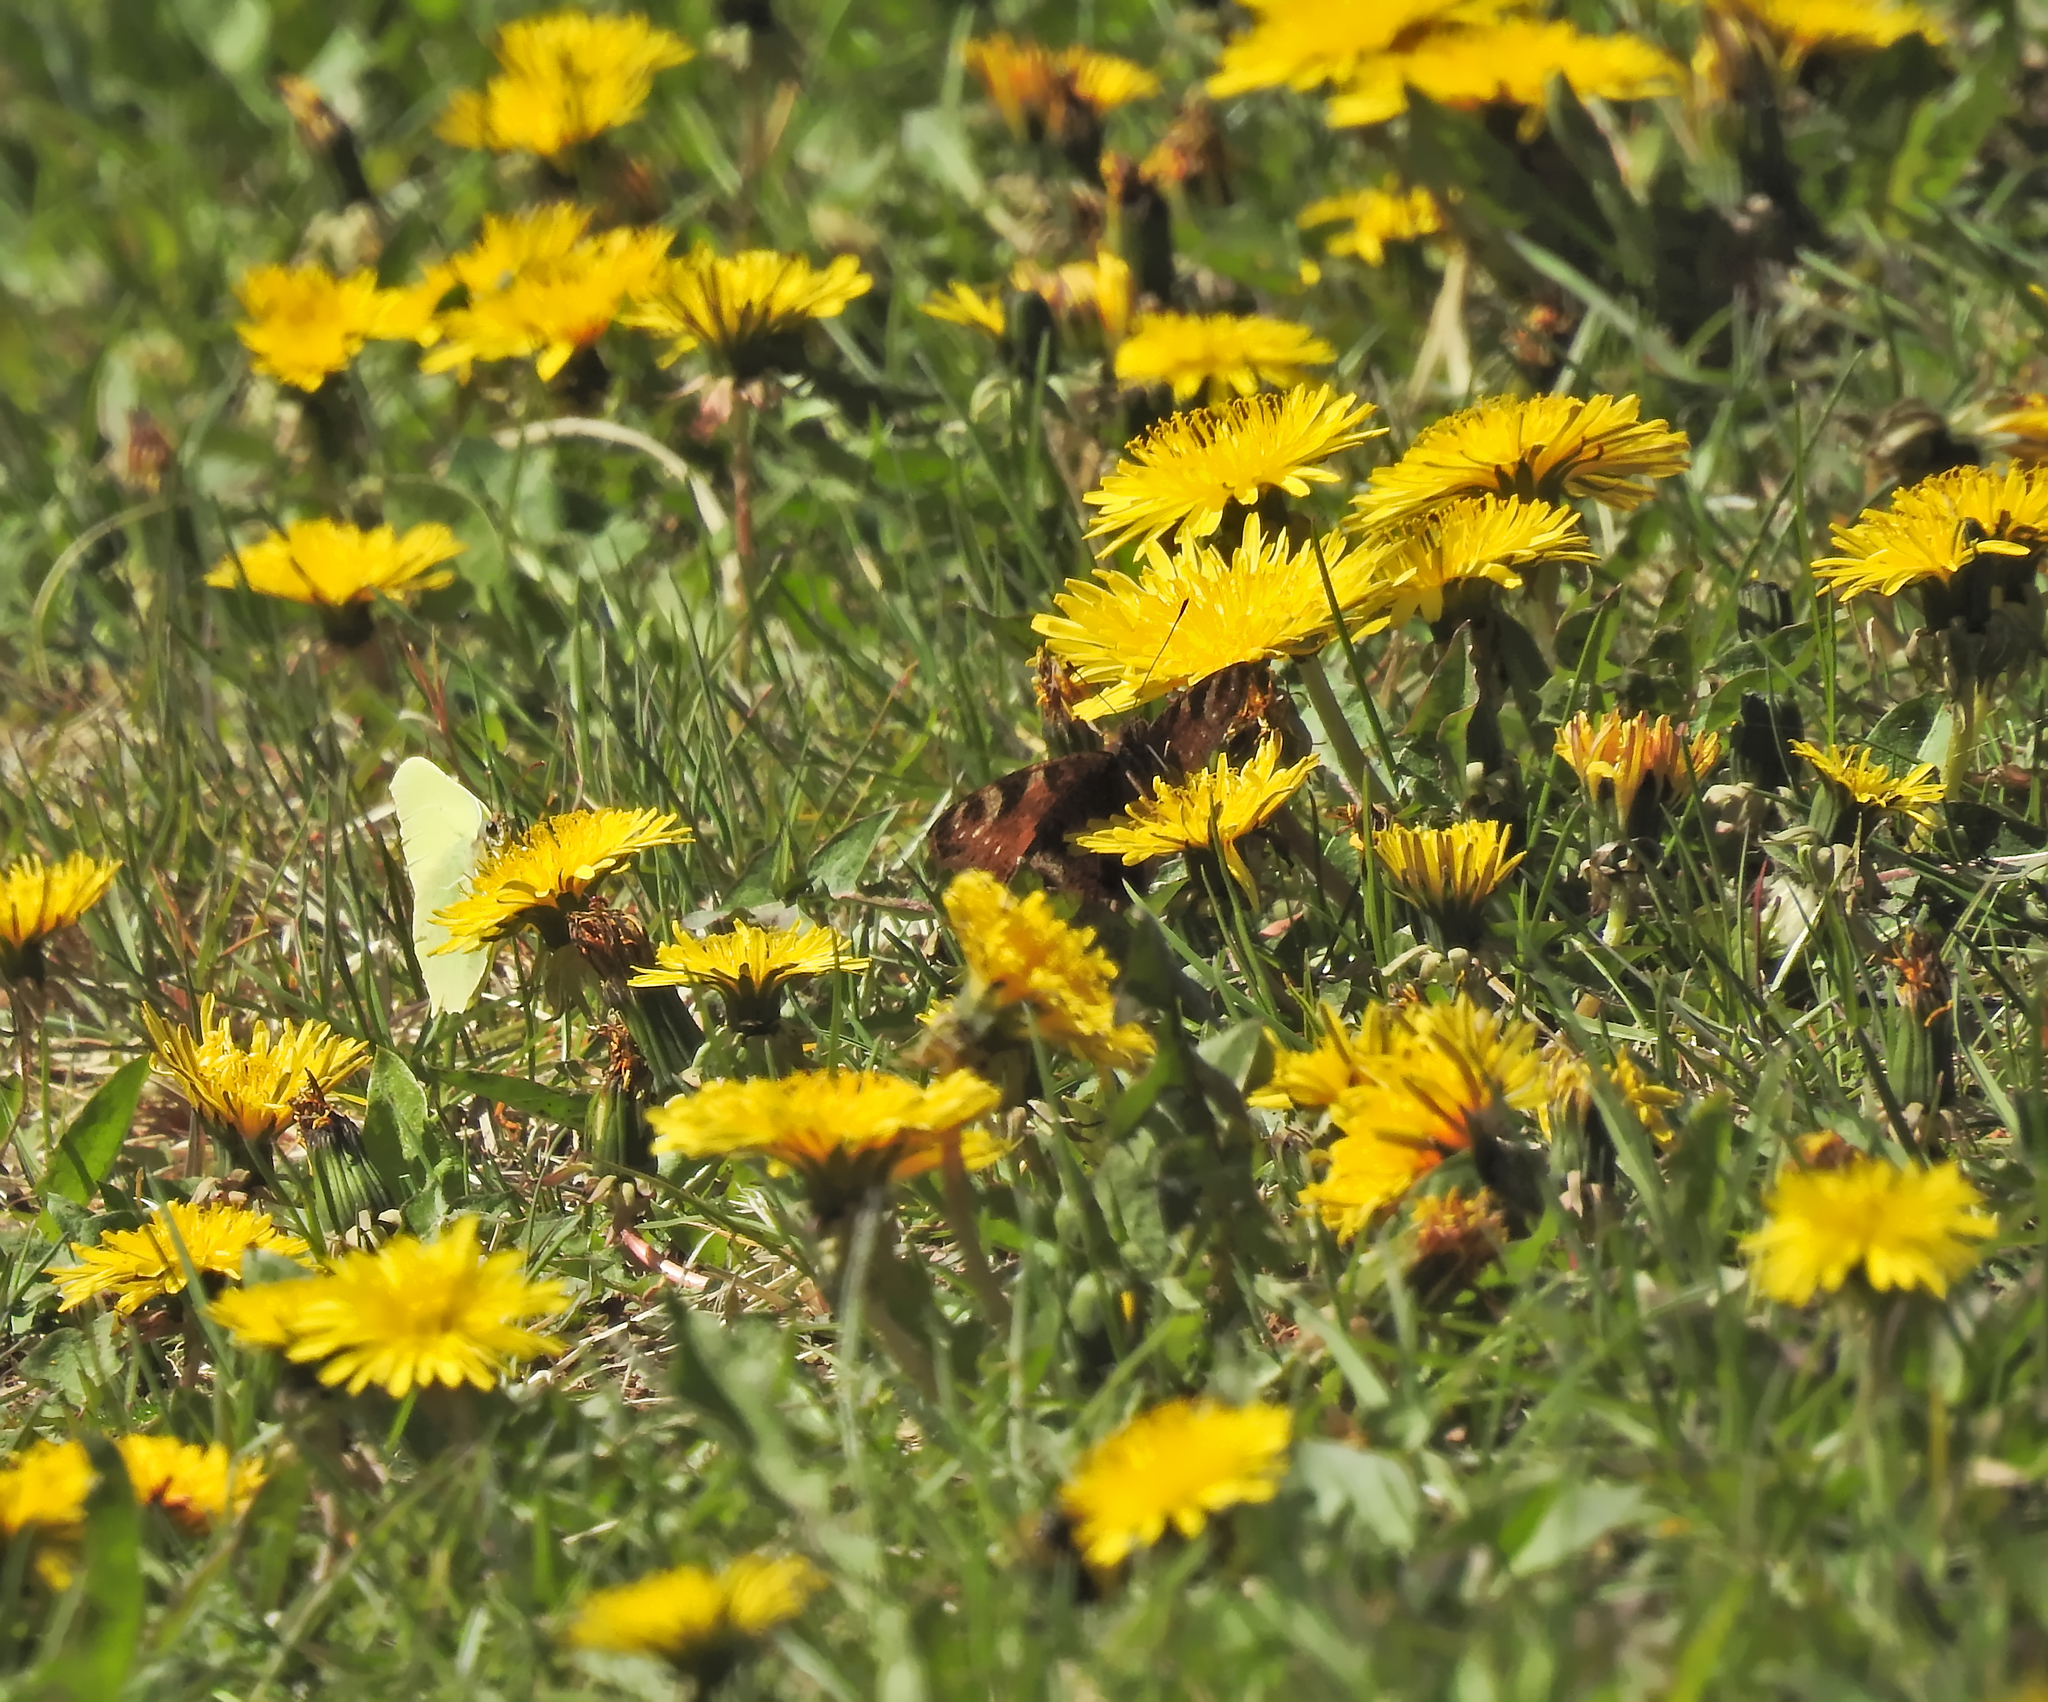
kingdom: Animalia
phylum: Arthropoda
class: Insecta
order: Lepidoptera
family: Nymphalidae
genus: Aglais
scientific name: Aglais io
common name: Peacock
